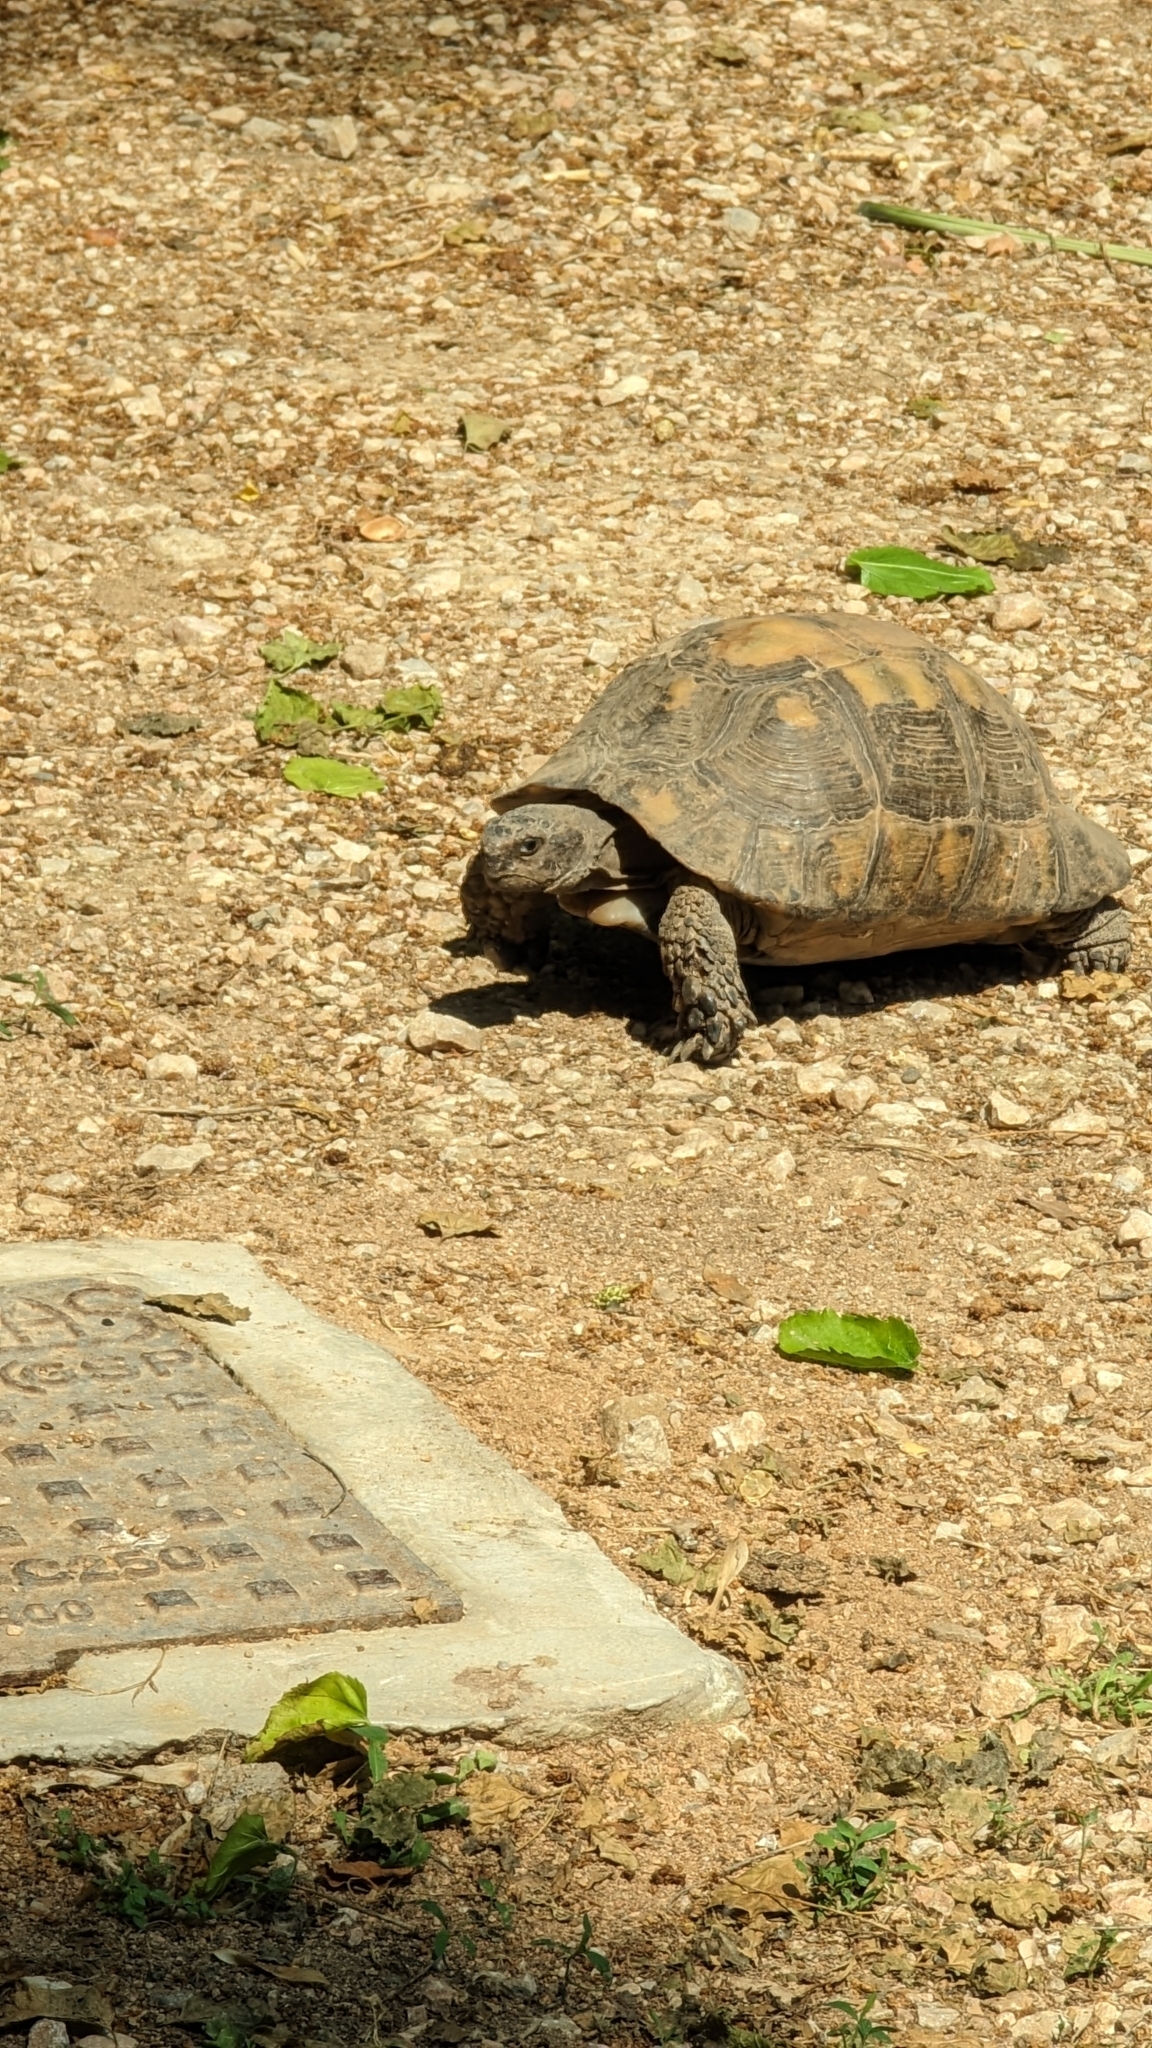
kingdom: Animalia
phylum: Chordata
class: Testudines
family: Testudinidae
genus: Testudo
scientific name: Testudo marginata
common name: Marginated tortoise
